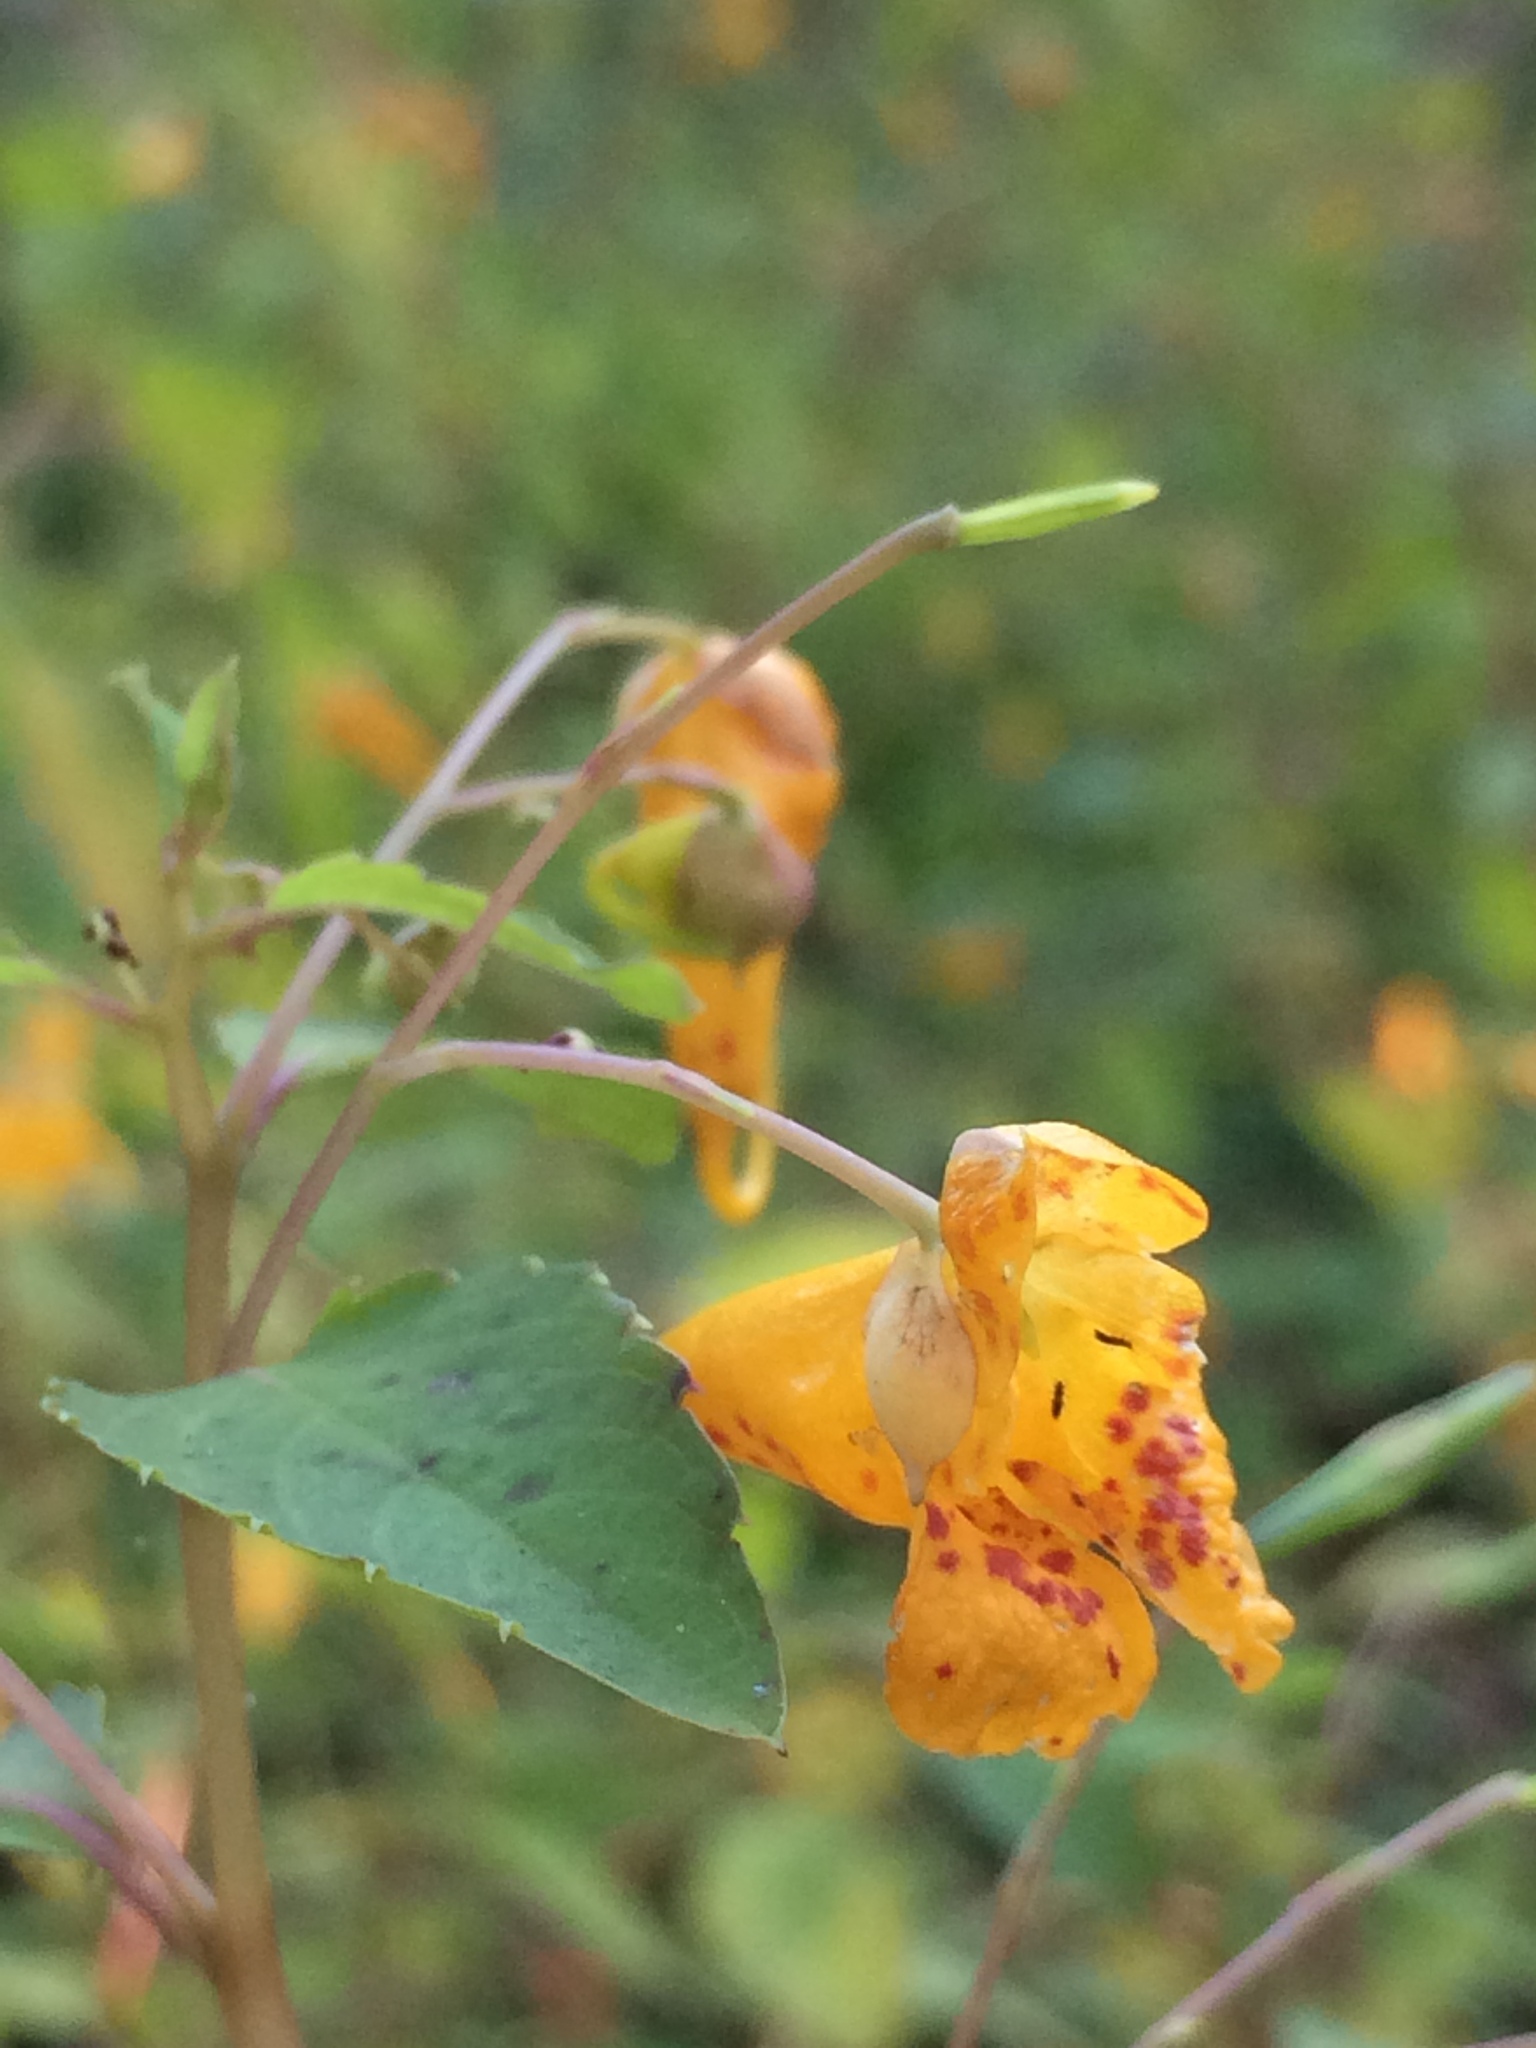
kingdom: Plantae
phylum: Tracheophyta
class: Magnoliopsida
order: Ericales
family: Balsaminaceae
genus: Impatiens
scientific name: Impatiens capensis
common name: Orange balsam
